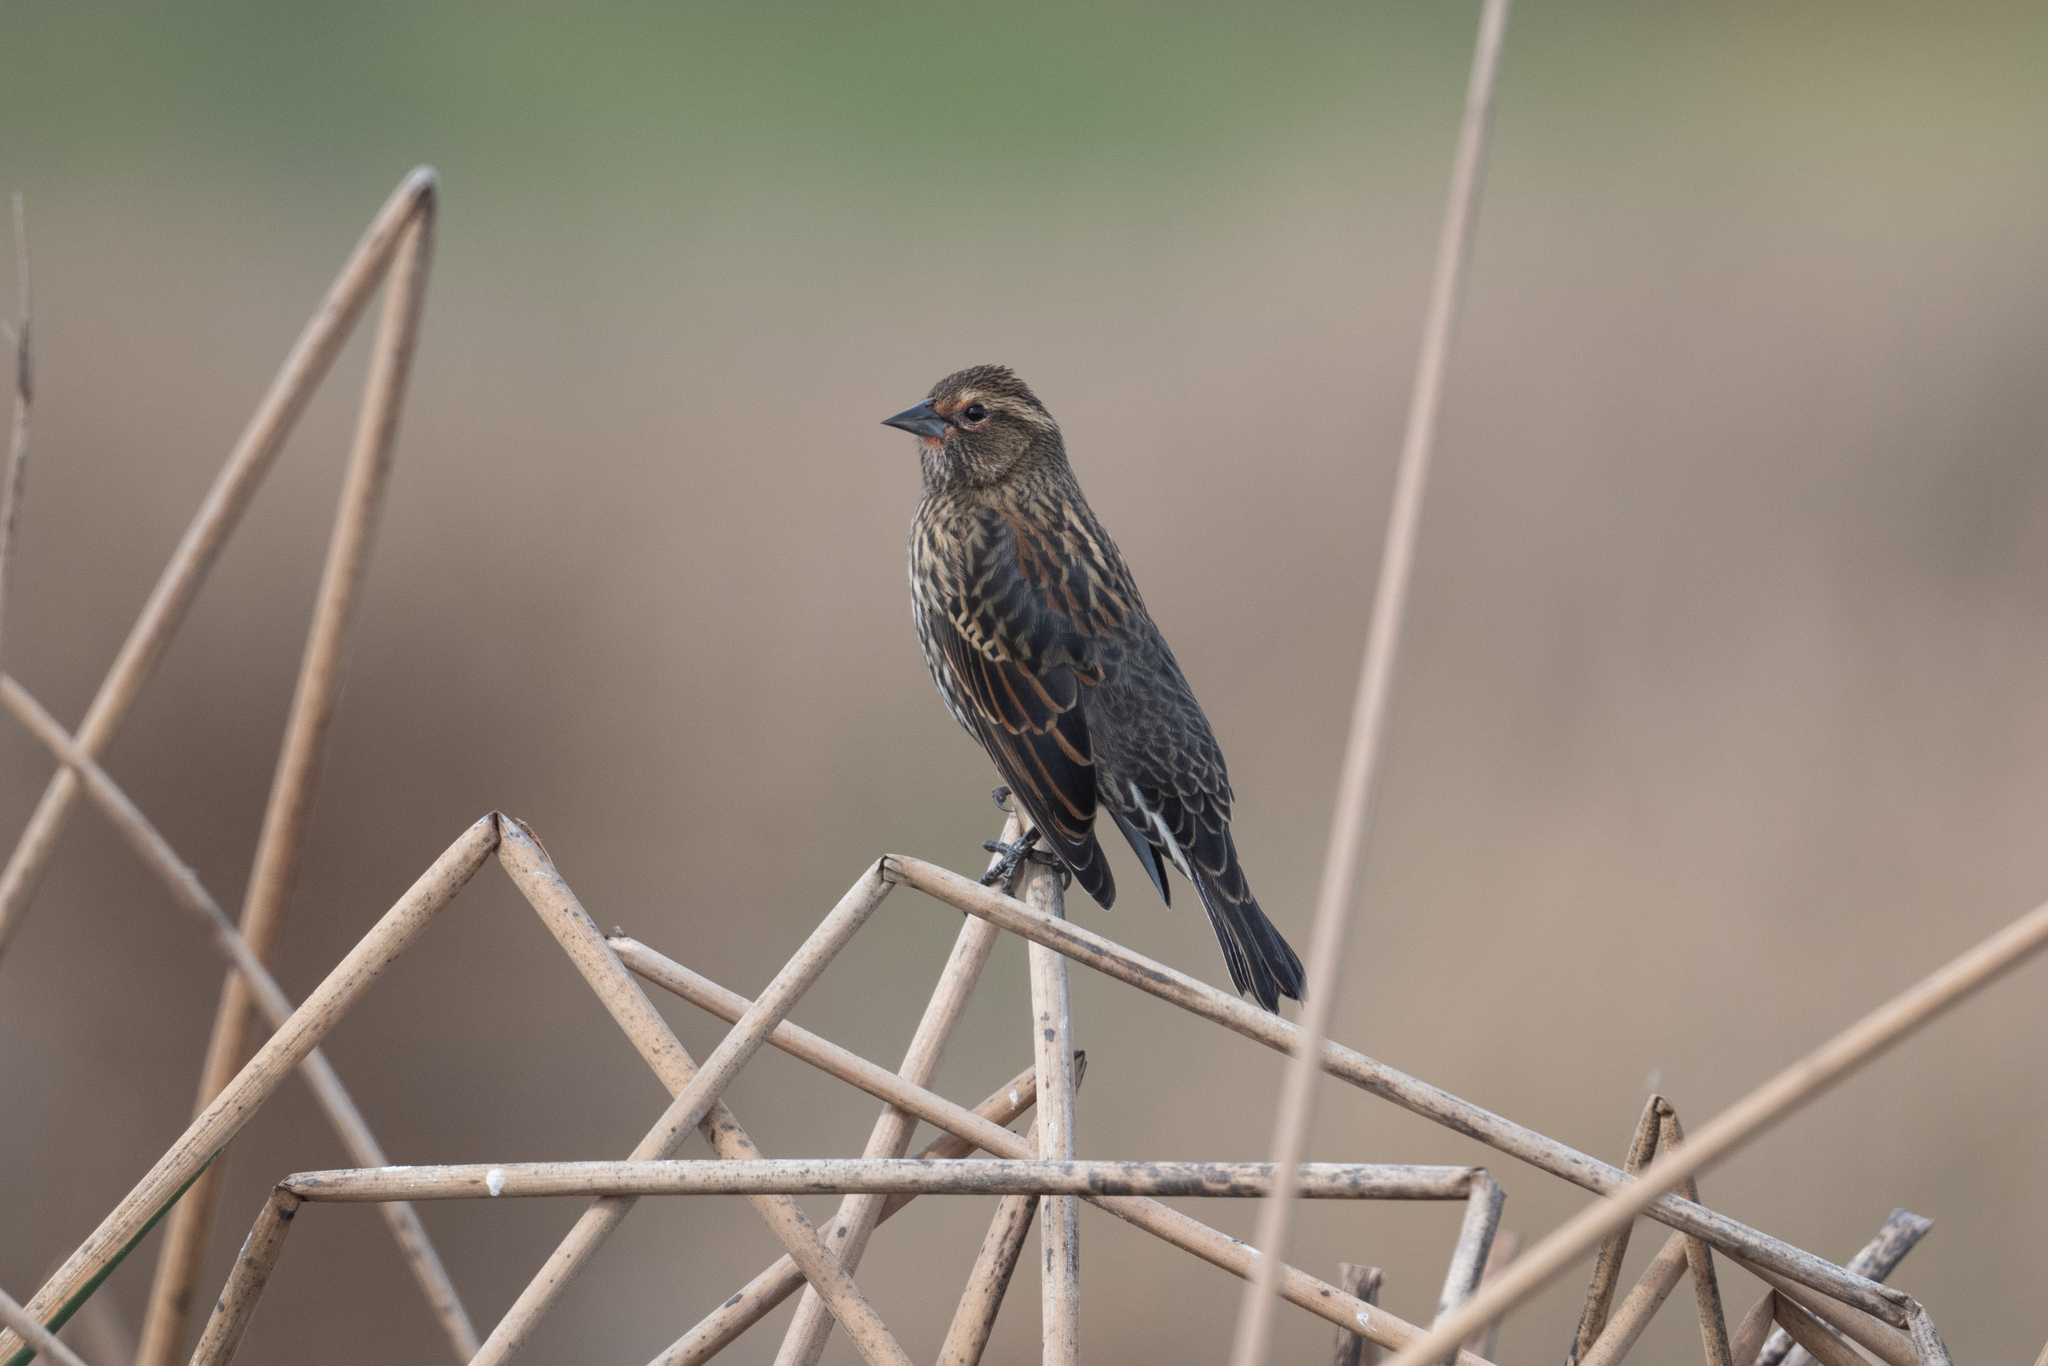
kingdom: Animalia
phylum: Chordata
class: Aves
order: Passeriformes
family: Icteridae
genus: Agelaius
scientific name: Agelaius phoeniceus
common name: Red-winged blackbird
